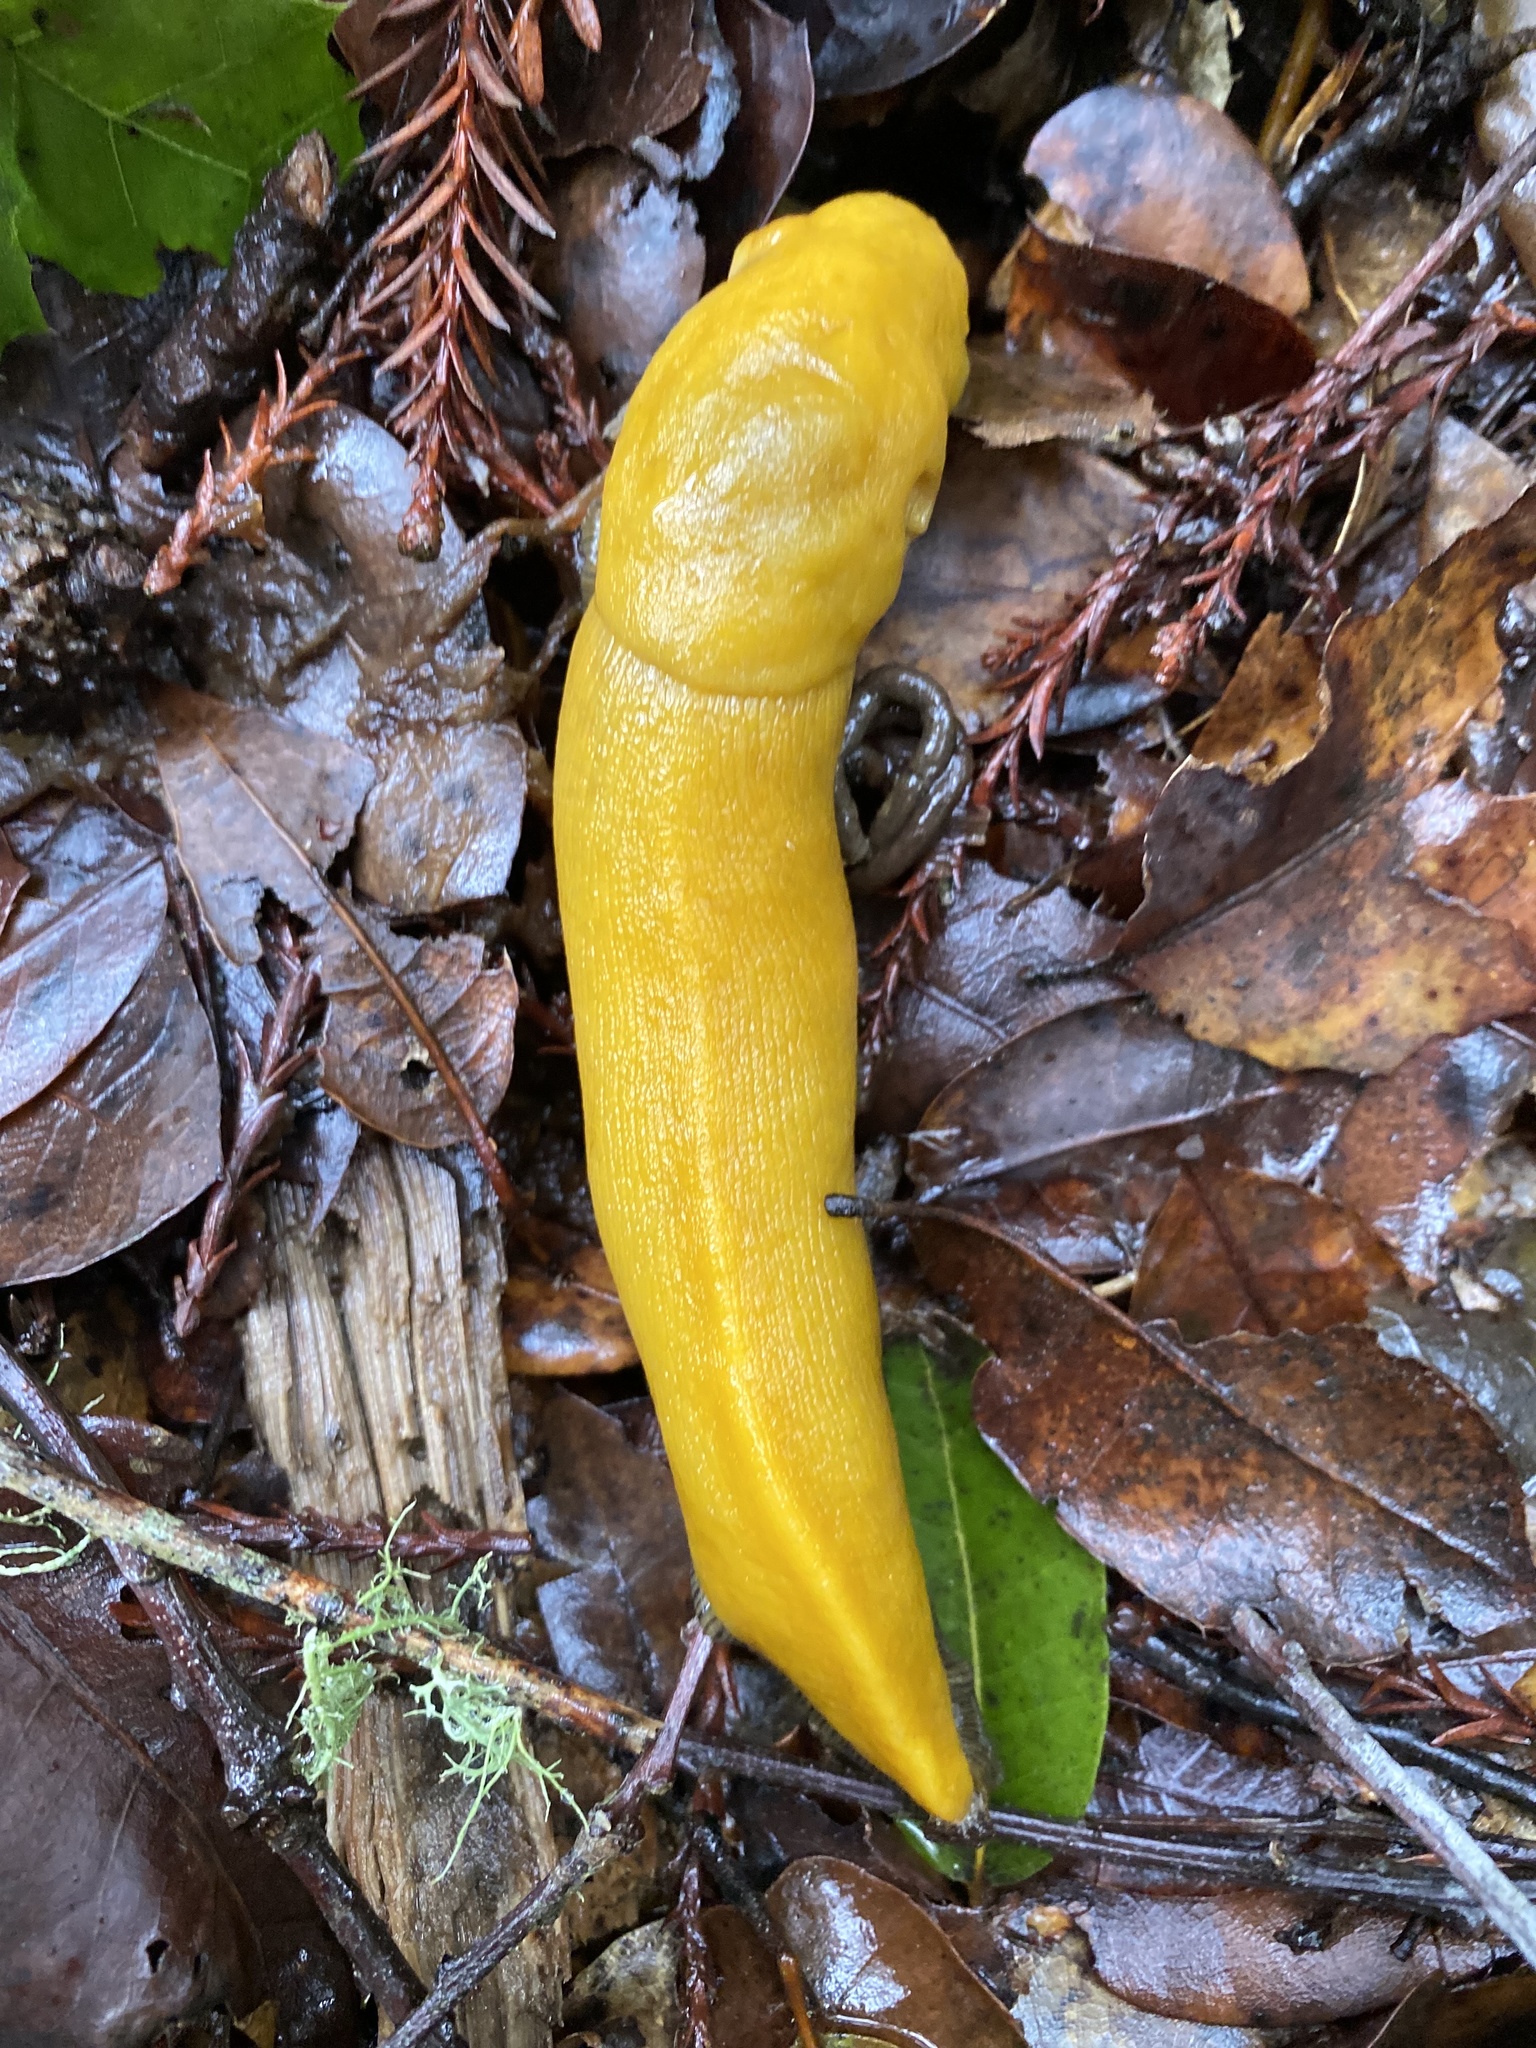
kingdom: Animalia
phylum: Mollusca
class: Gastropoda
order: Stylommatophora
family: Ariolimacidae
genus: Ariolimax
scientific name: Ariolimax dolichophallus
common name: Slender banana slug
